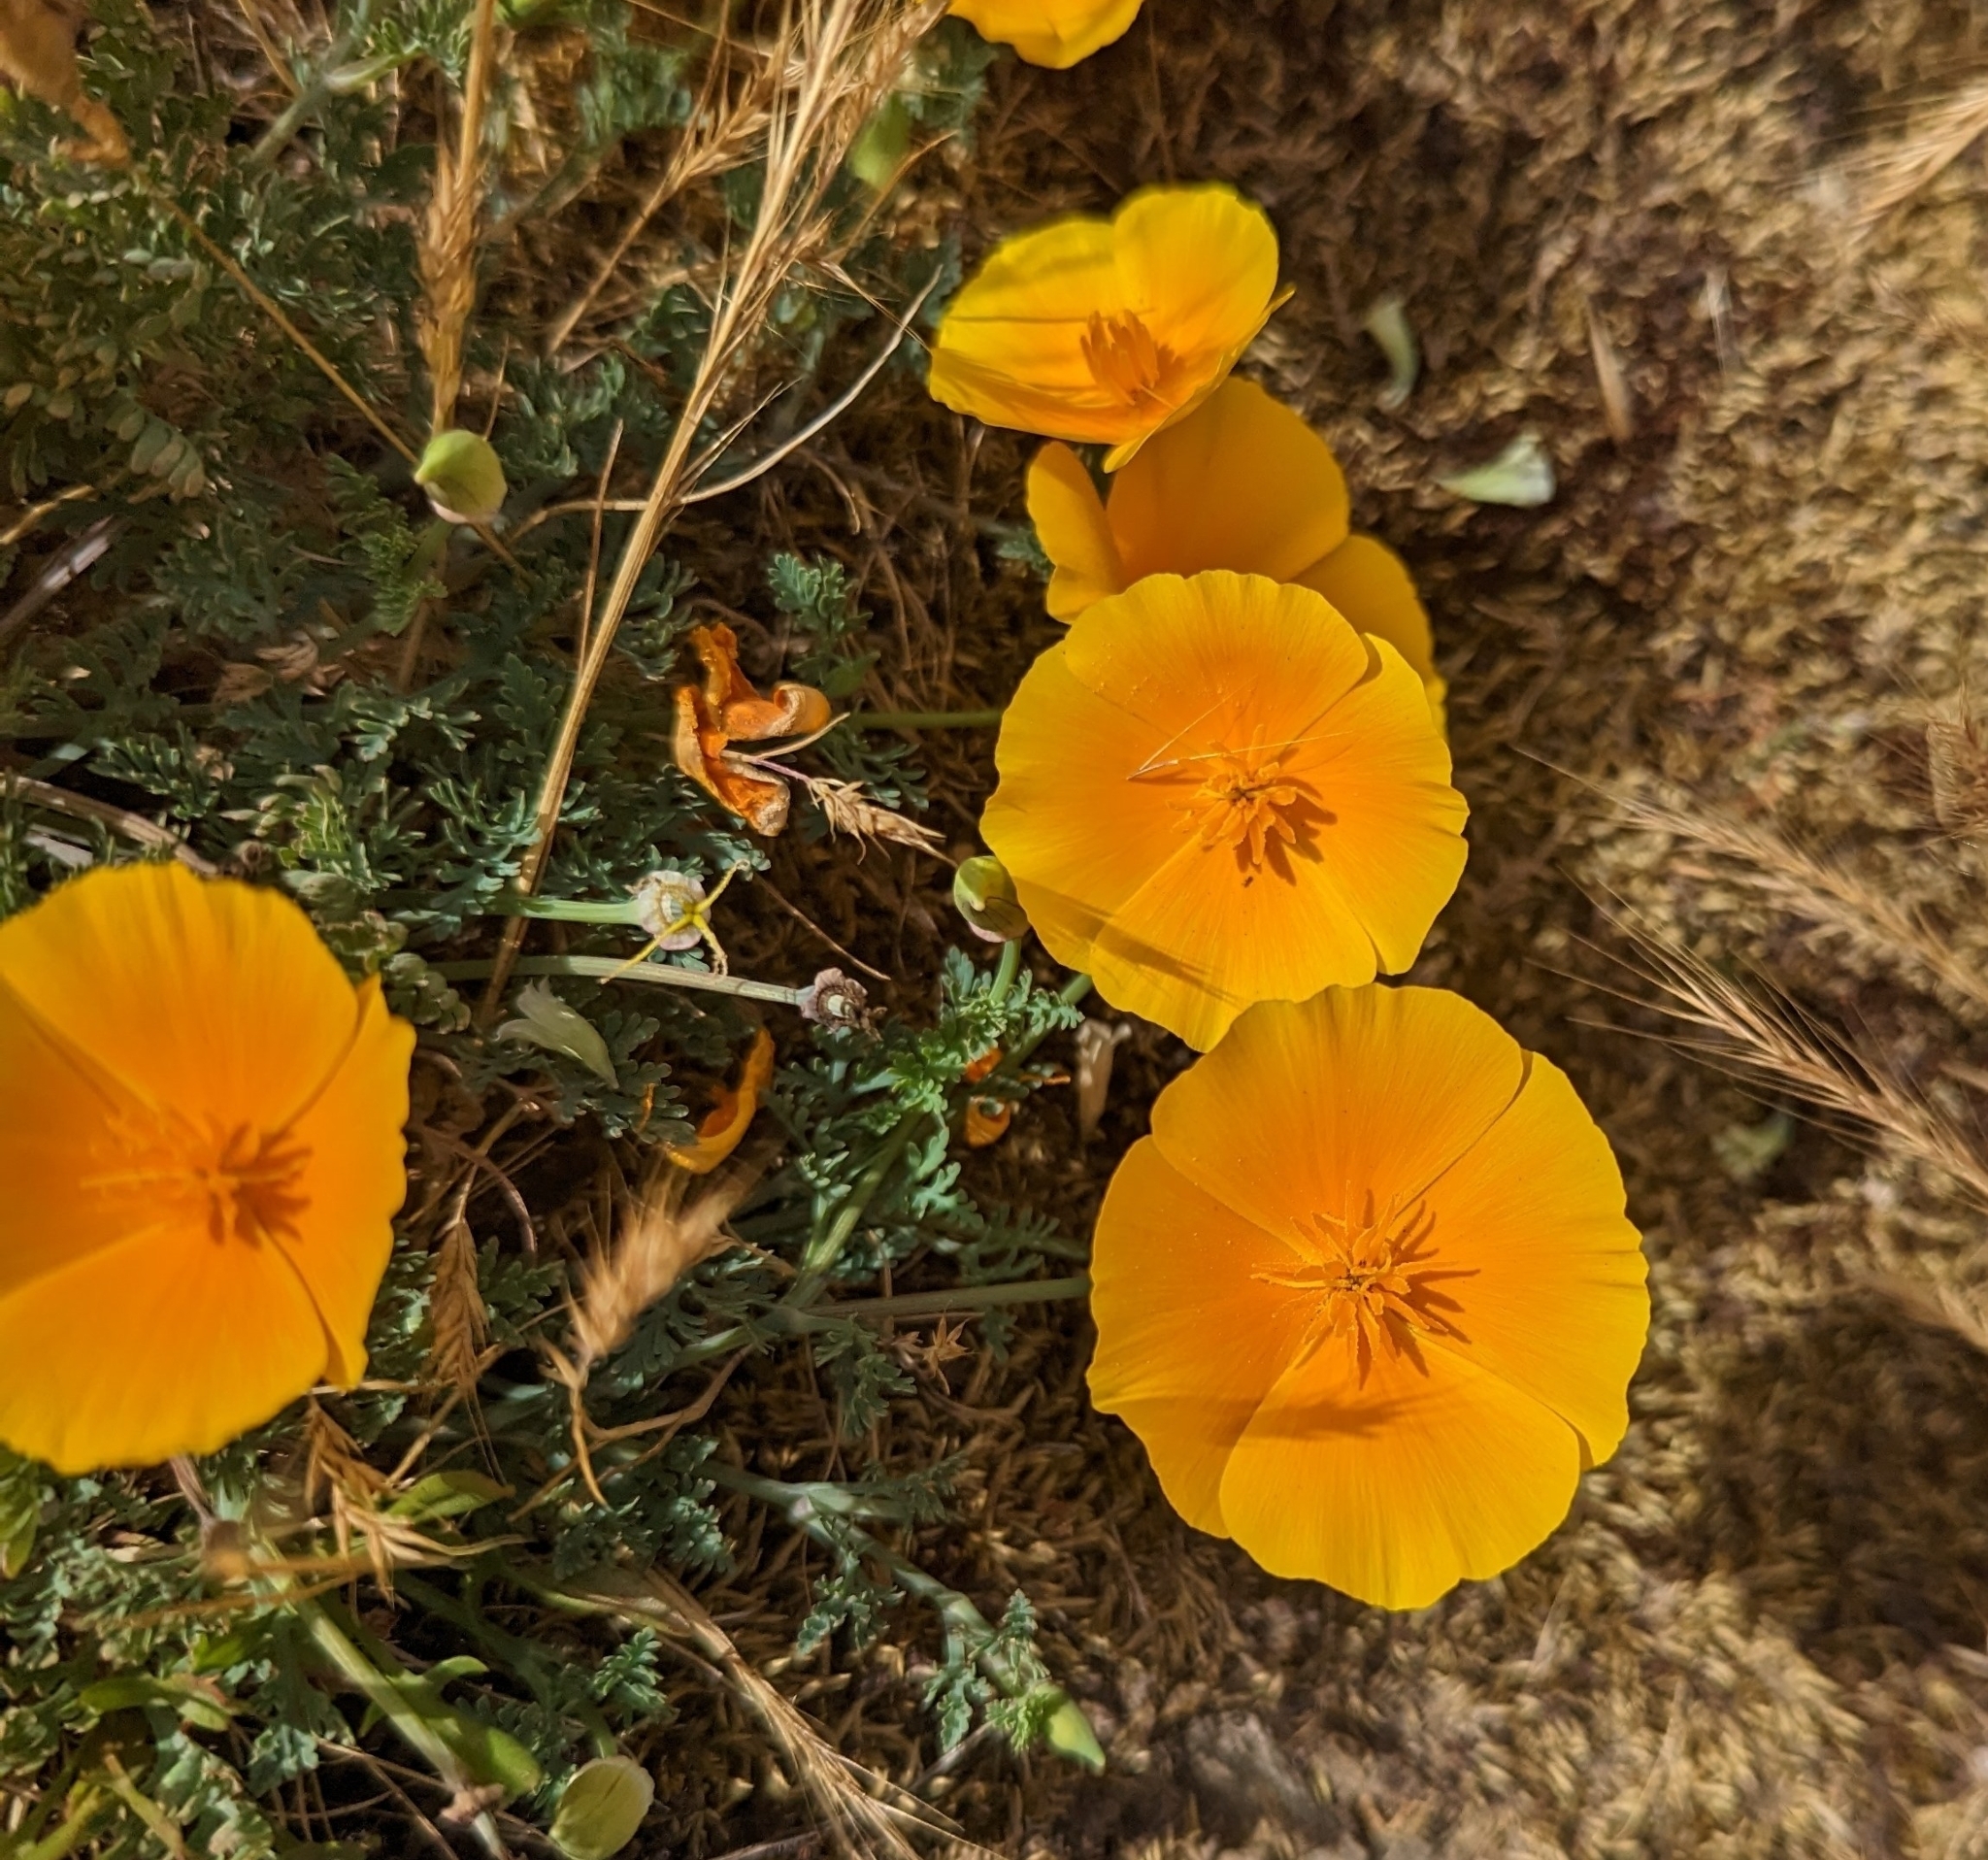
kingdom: Plantae
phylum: Tracheophyta
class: Magnoliopsida
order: Ranunculales
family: Papaveraceae
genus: Eschscholzia
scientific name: Eschscholzia californica
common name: California poppy
